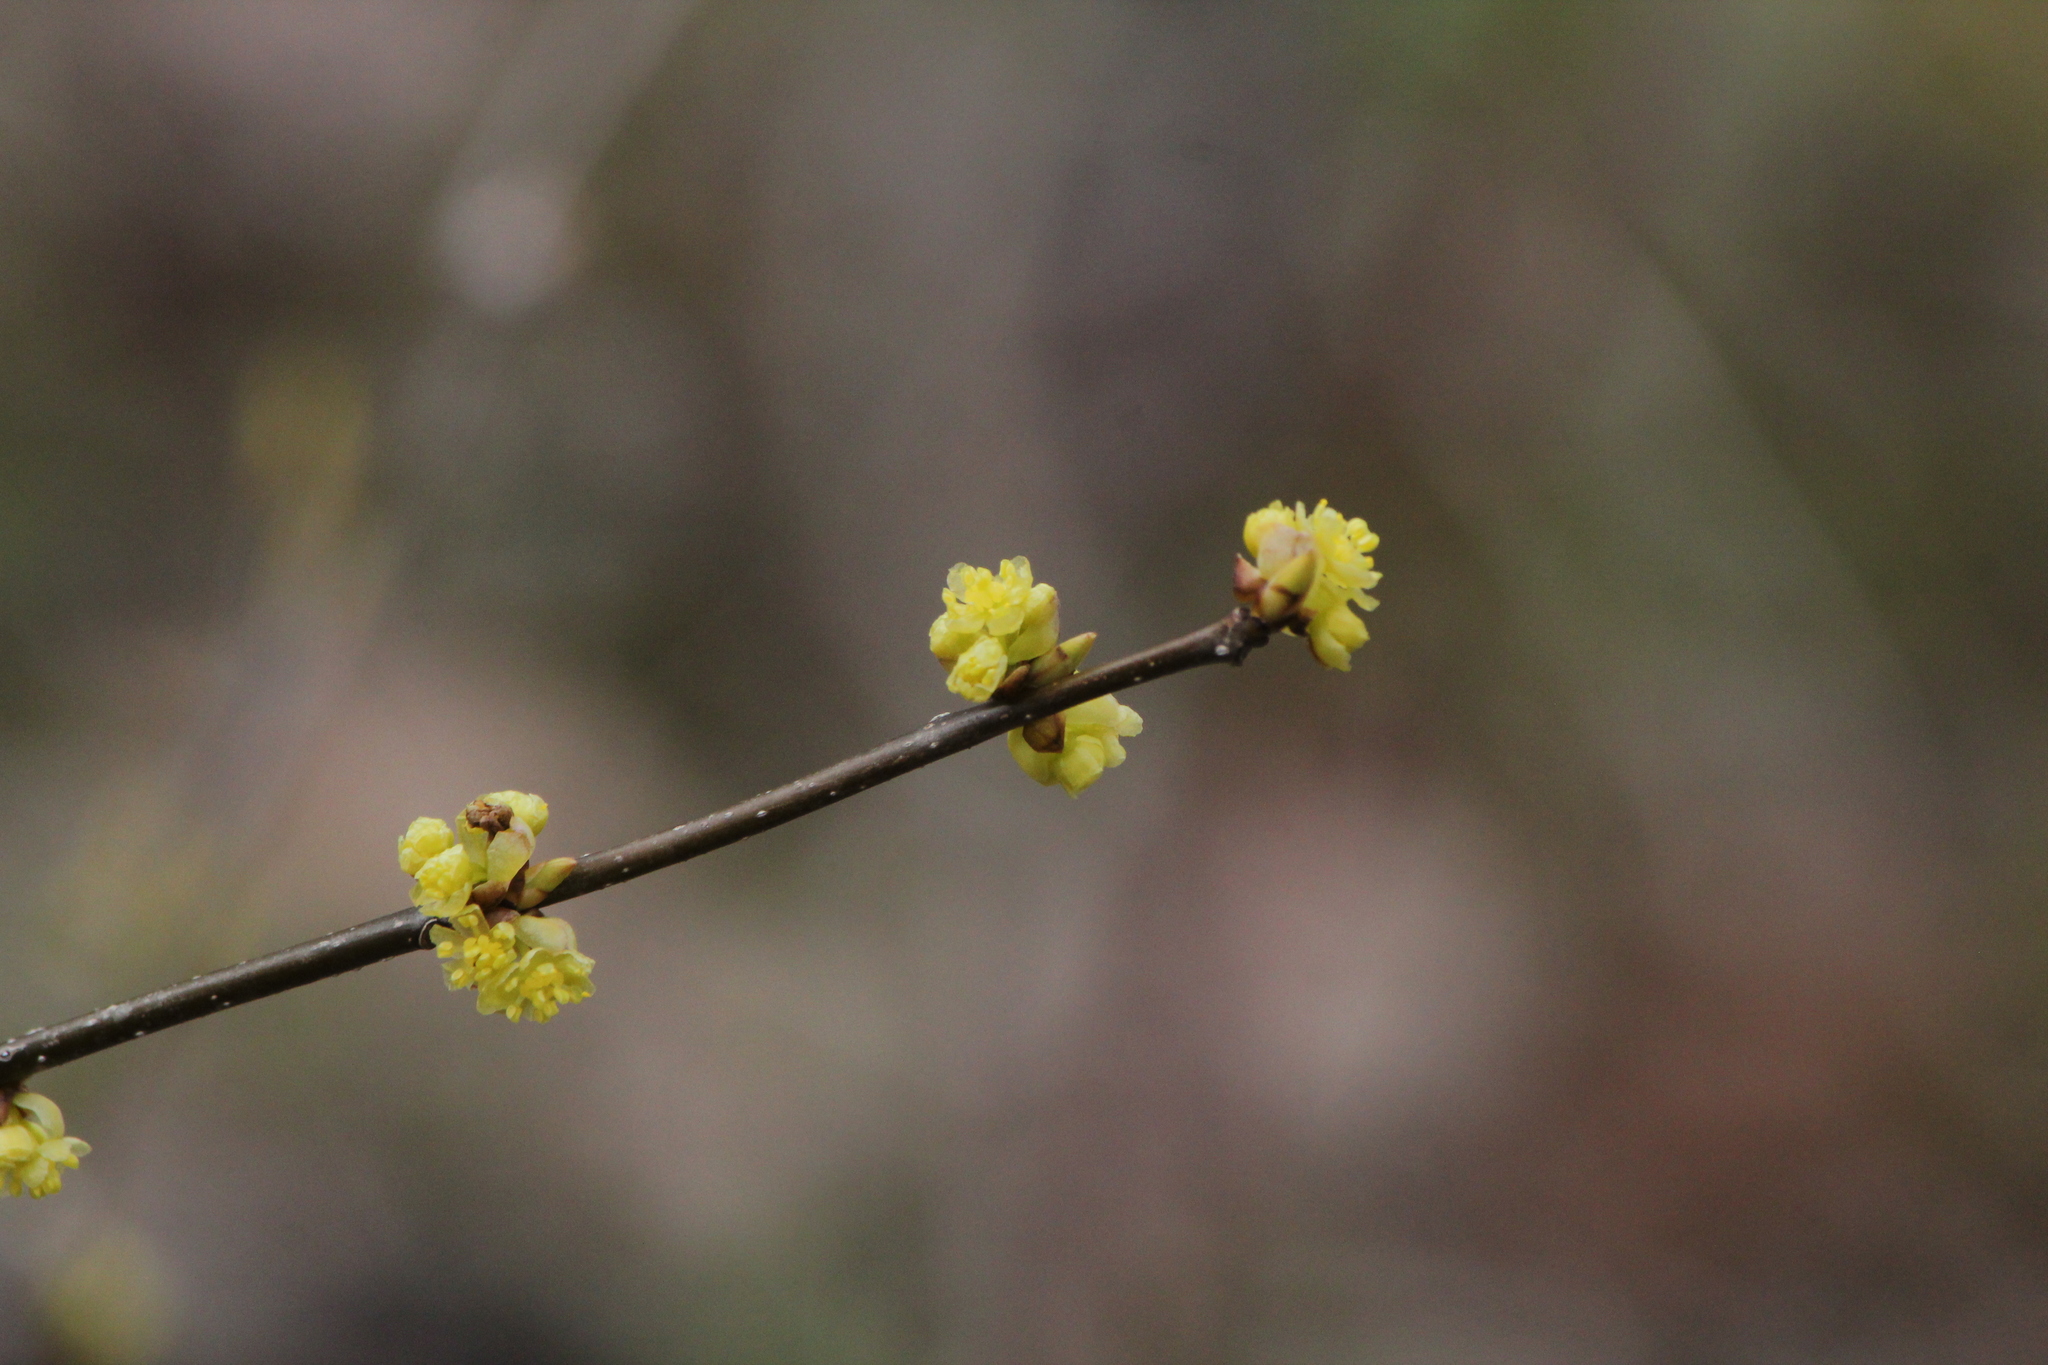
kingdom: Plantae
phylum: Tracheophyta
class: Magnoliopsida
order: Laurales
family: Lauraceae
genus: Lindera
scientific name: Lindera benzoin
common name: Spicebush
